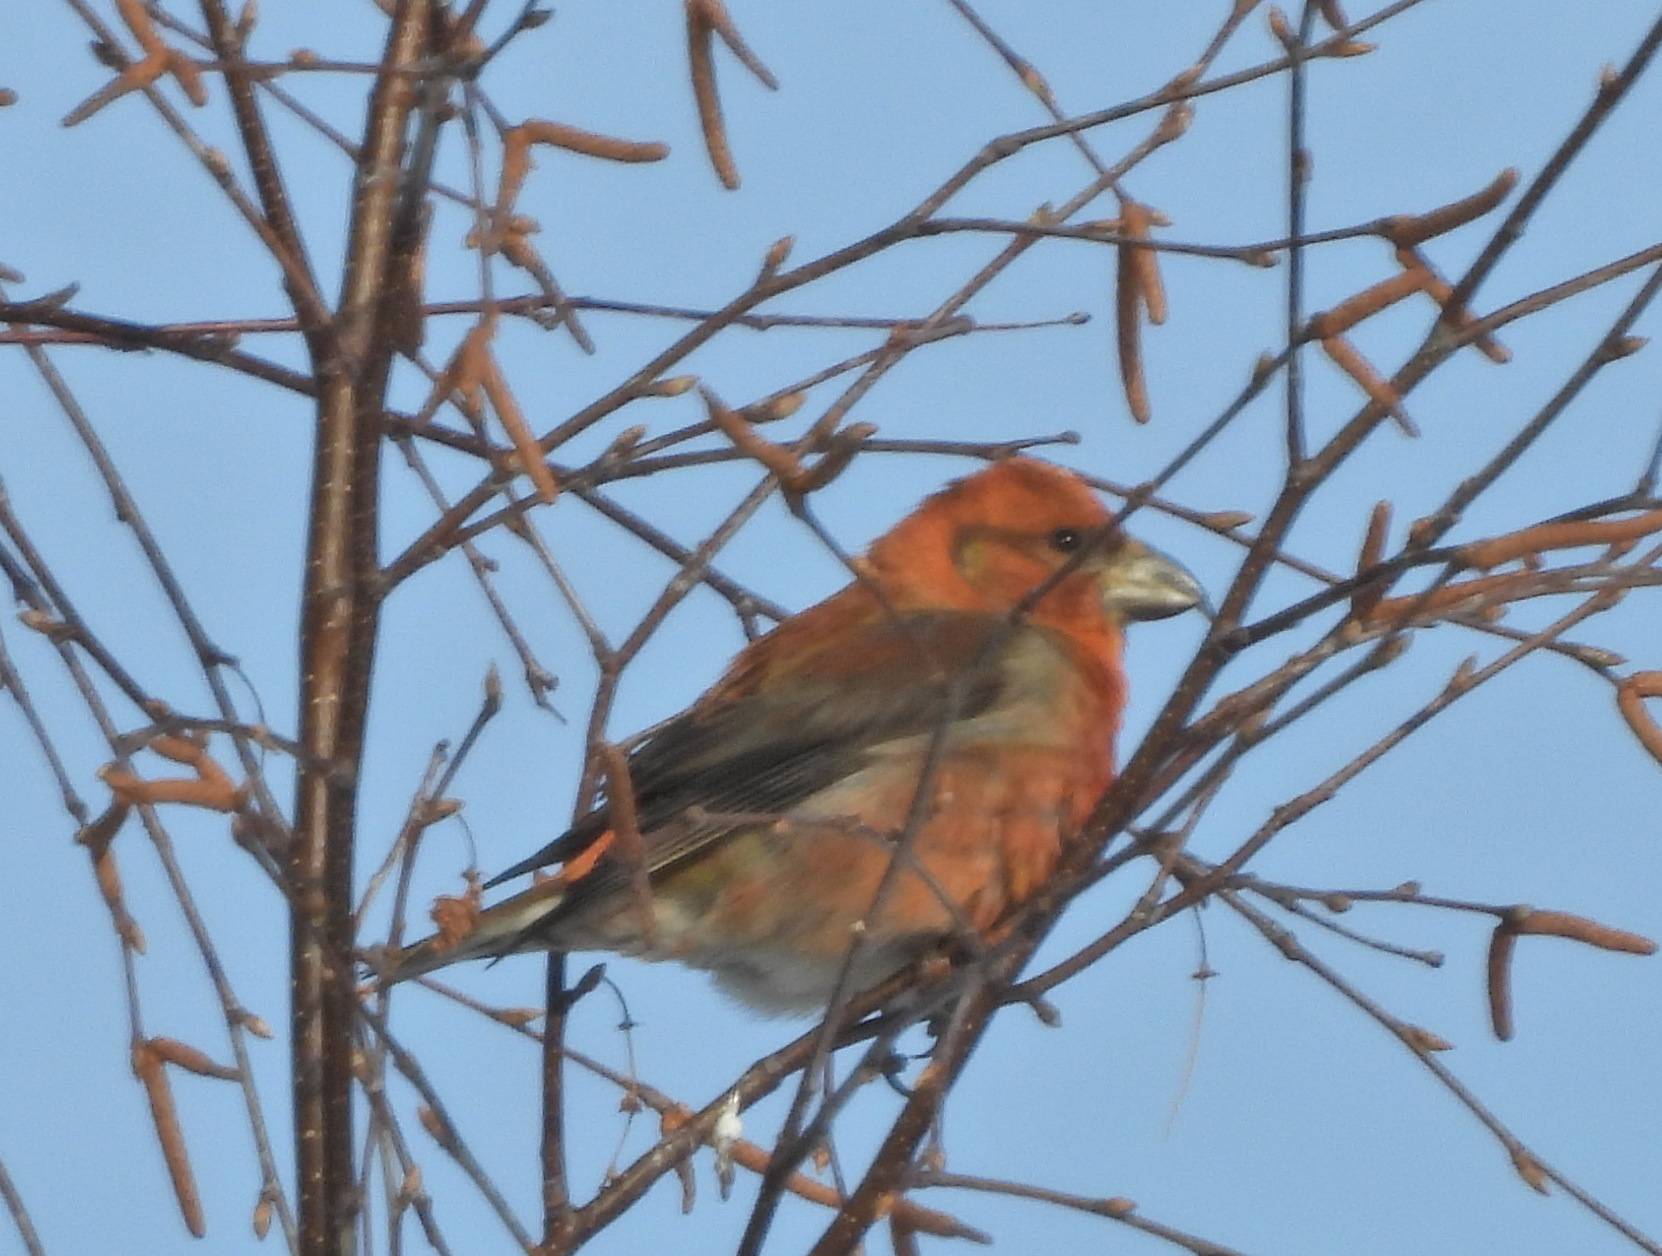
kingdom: Animalia
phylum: Chordata
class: Aves
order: Passeriformes
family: Fringillidae
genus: Loxia
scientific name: Loxia curvirostra
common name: Red crossbill
